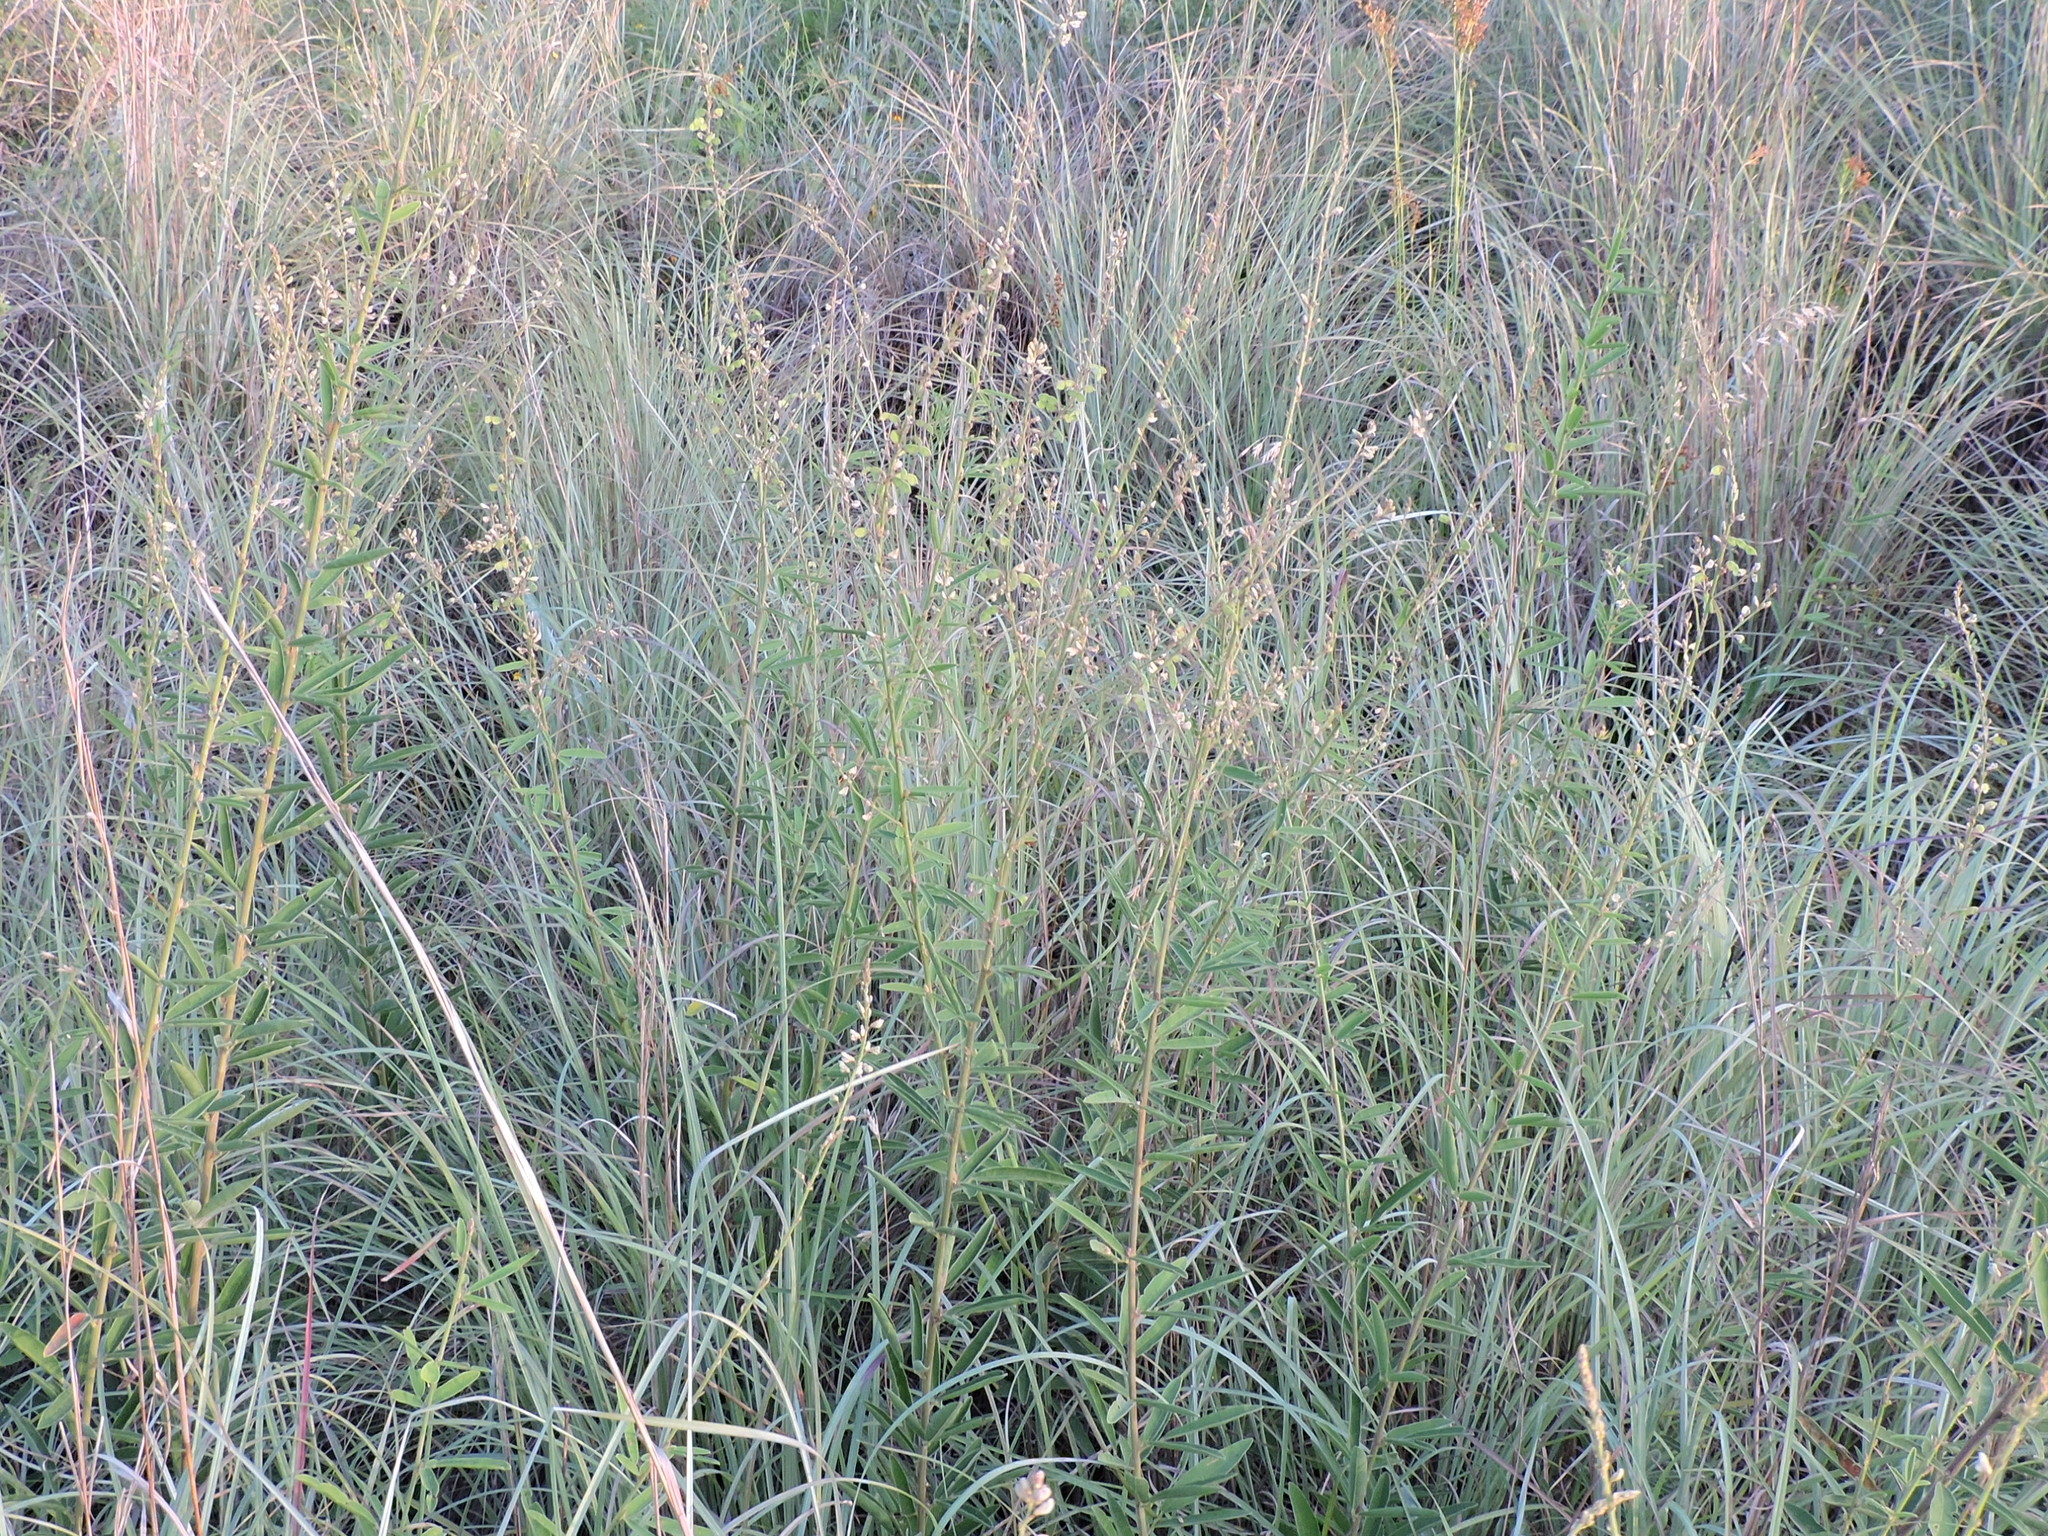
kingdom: Plantae
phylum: Tracheophyta
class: Magnoliopsida
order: Fabales
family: Fabaceae
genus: Desmodium
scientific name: Desmodium sessilifolium
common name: Sessile tick-clover
